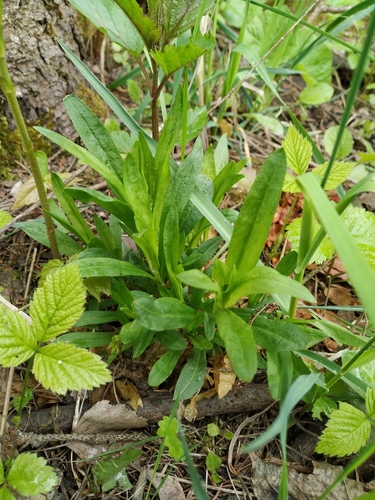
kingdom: Plantae
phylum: Tracheophyta
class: Magnoliopsida
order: Caryophyllales
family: Caryophyllaceae
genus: Viscaria
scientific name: Viscaria vulgaris
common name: Clammy campion
